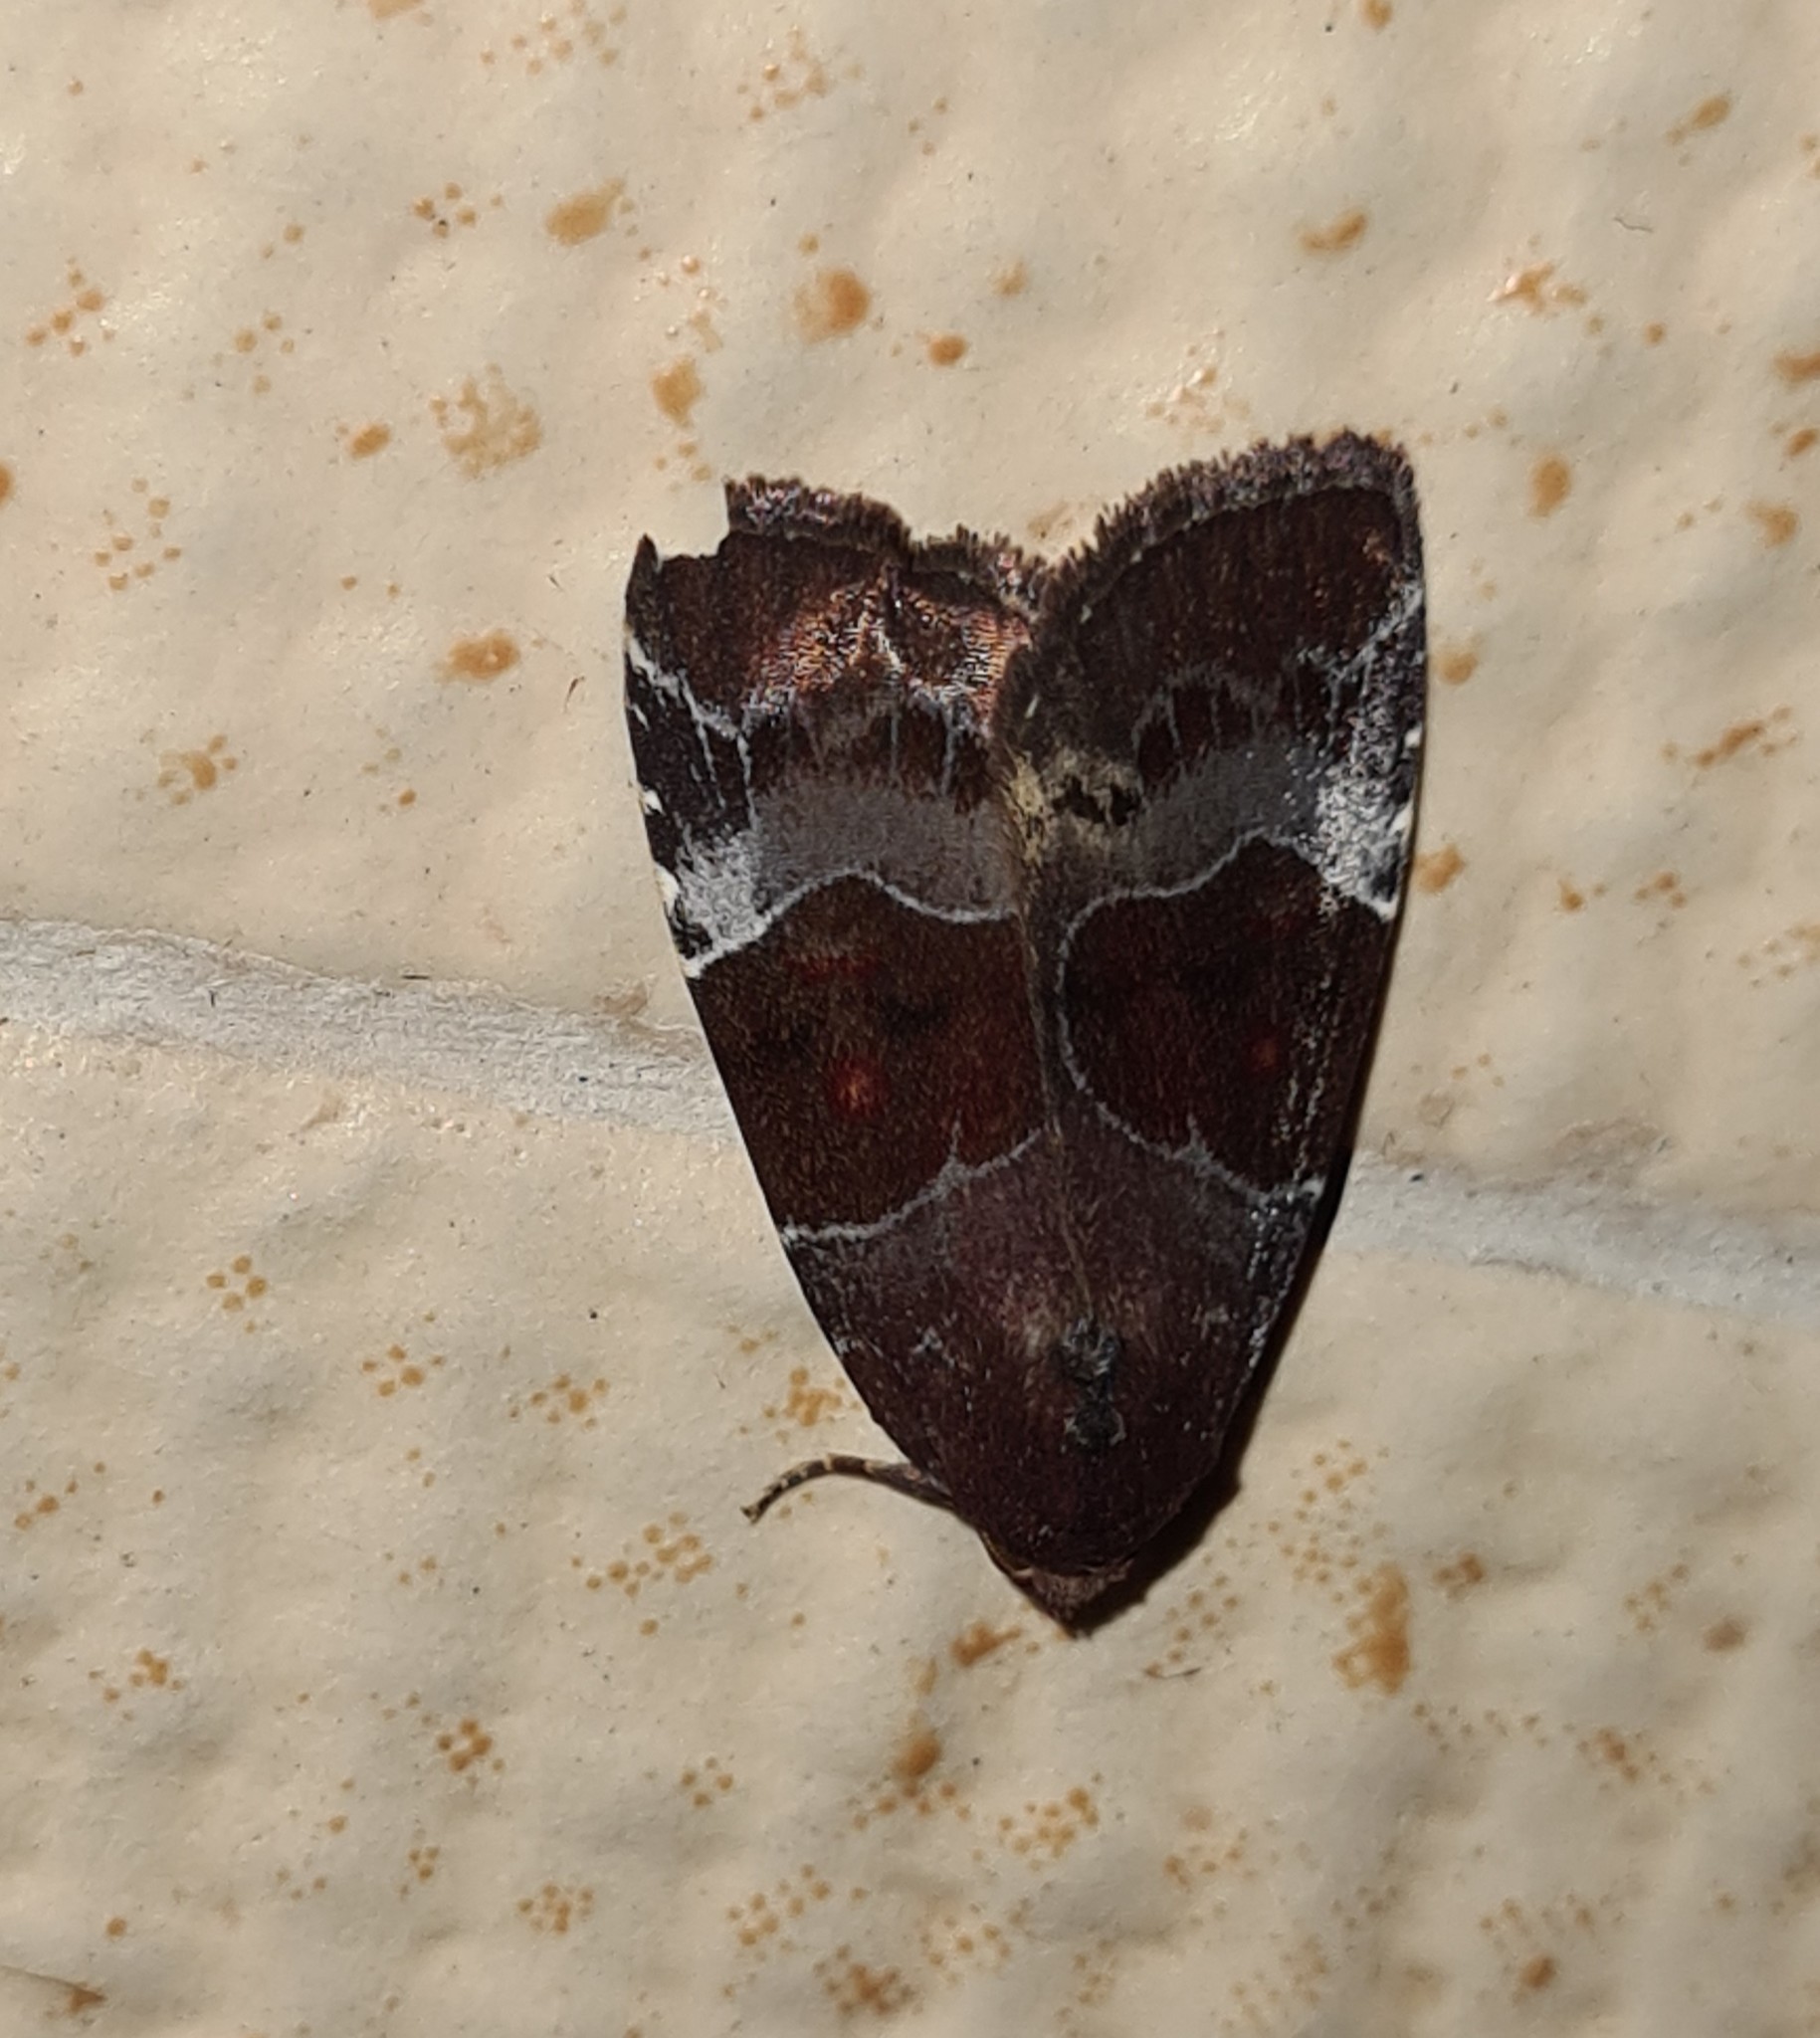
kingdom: Animalia
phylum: Arthropoda
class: Insecta
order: Lepidoptera
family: Noctuidae
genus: Hampsonodes
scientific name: Hampsonodes mastoides
